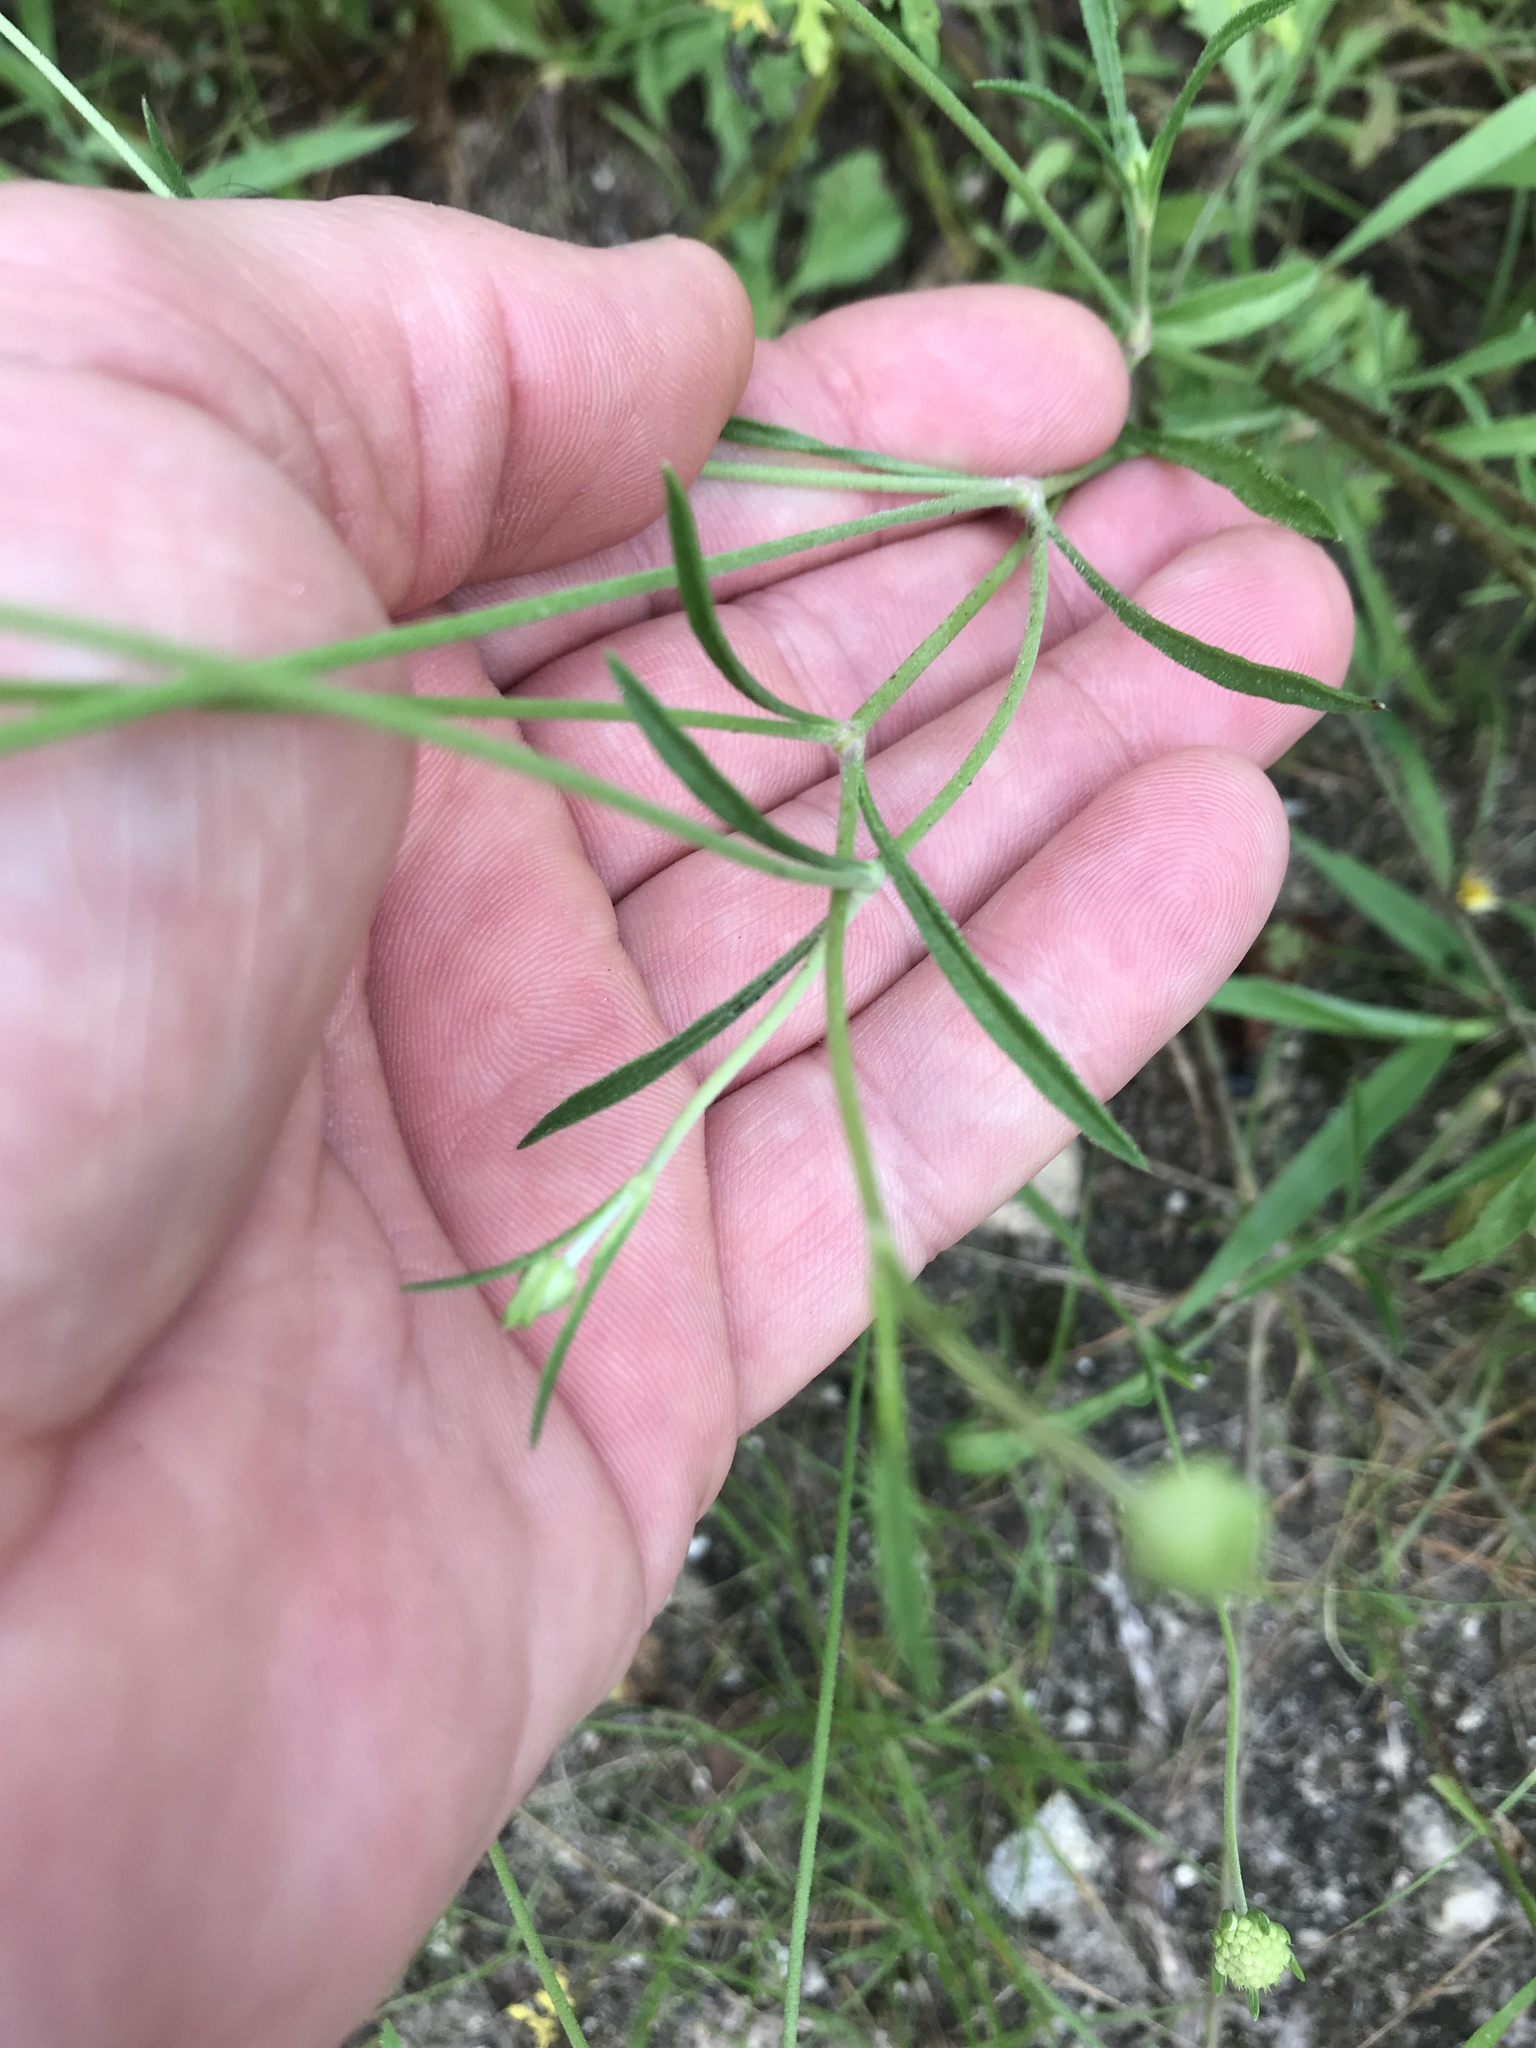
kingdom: Plantae
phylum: Tracheophyta
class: Magnoliopsida
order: Dipsacales
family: Caprifoliaceae
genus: Sixalix
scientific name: Sixalix atropurpurea
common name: Sweet scabious
